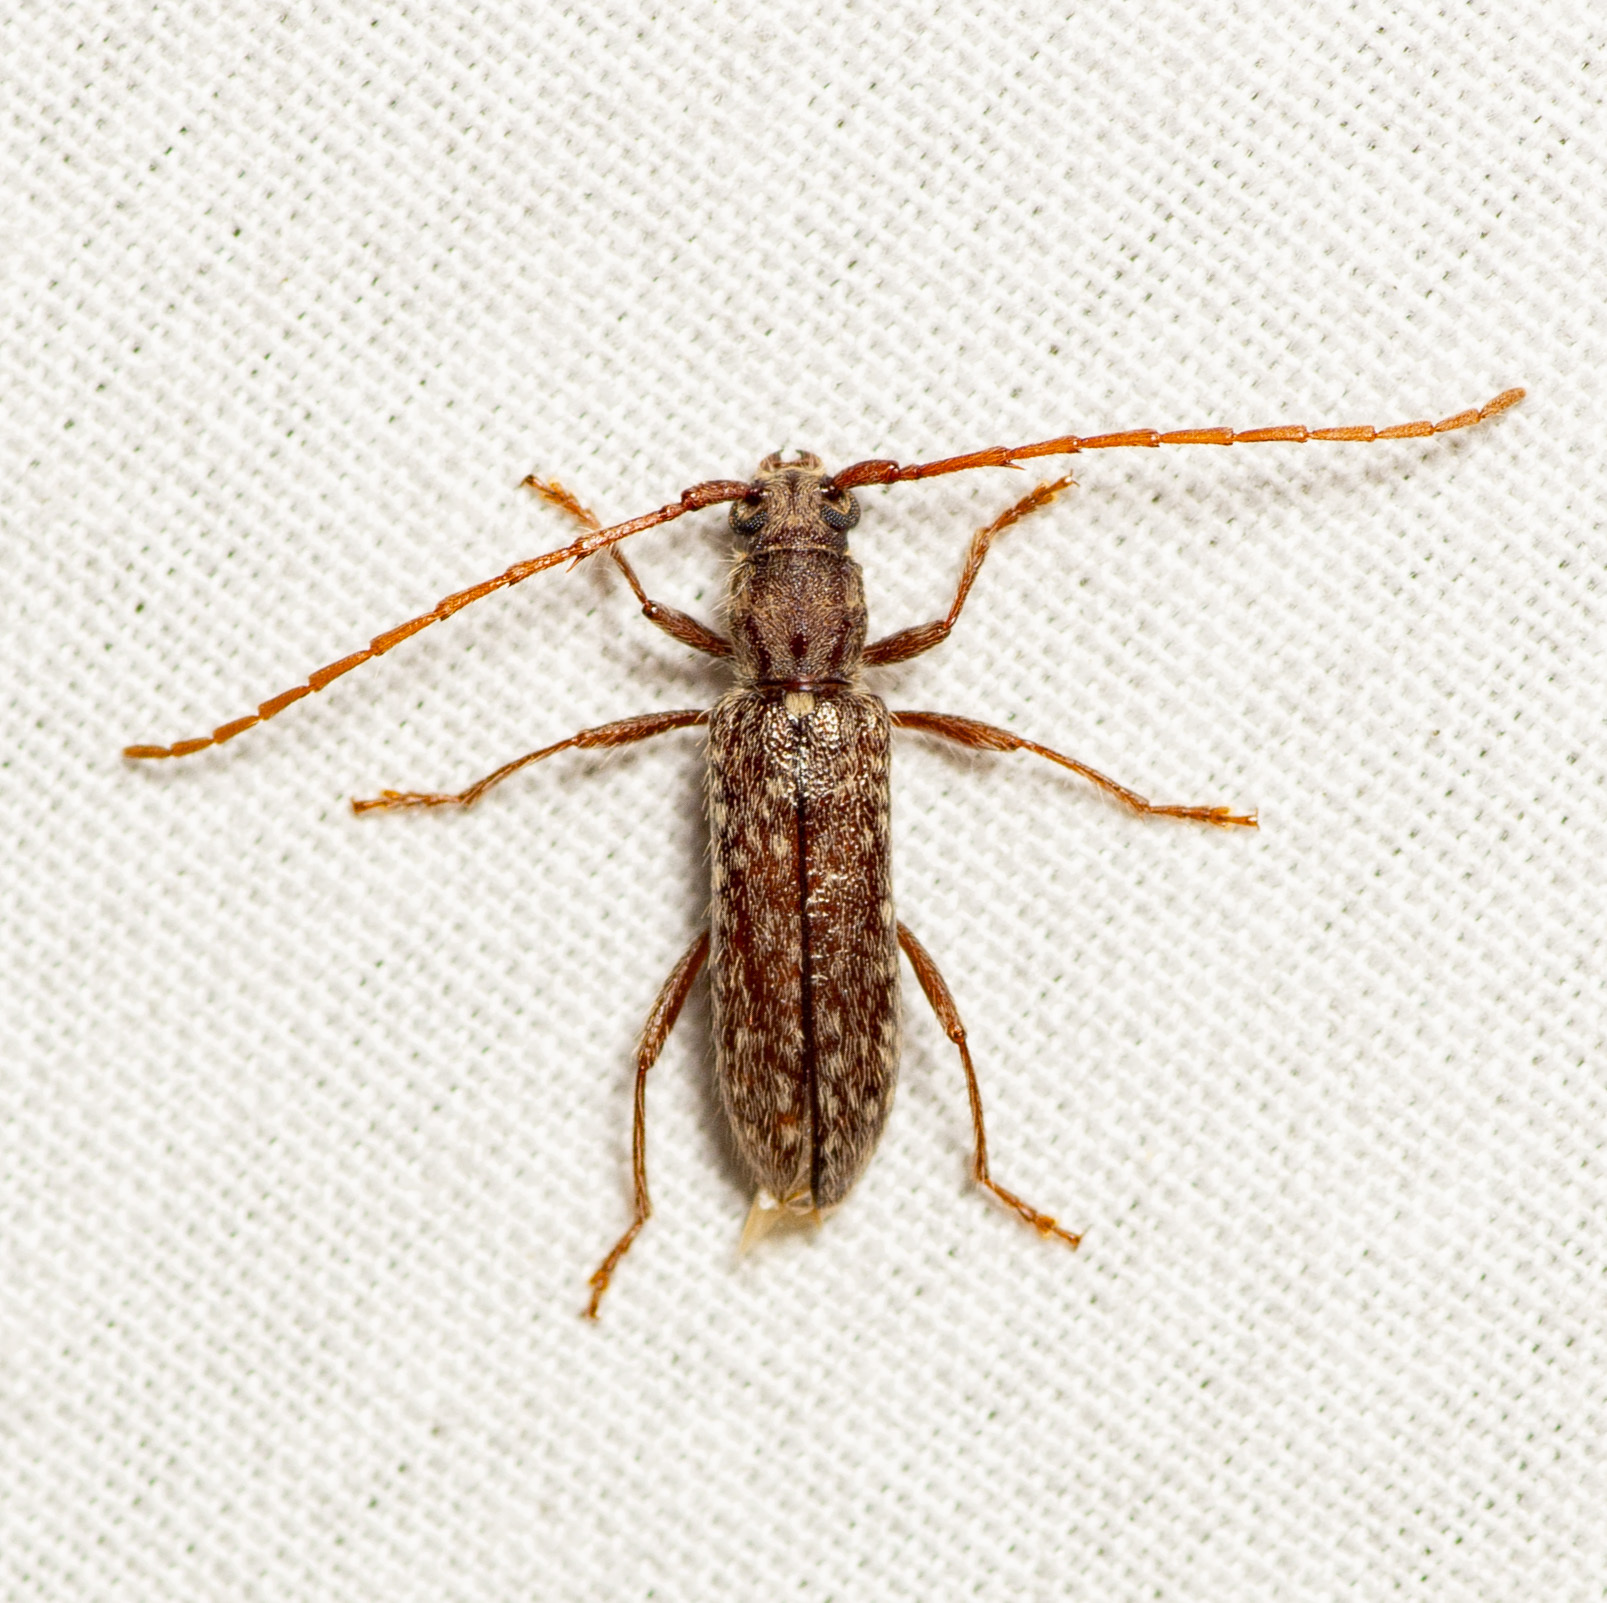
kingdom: Animalia
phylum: Arthropoda
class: Insecta
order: Coleoptera
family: Cerambycidae
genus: Anelaphus
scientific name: Anelaphus pumilus
